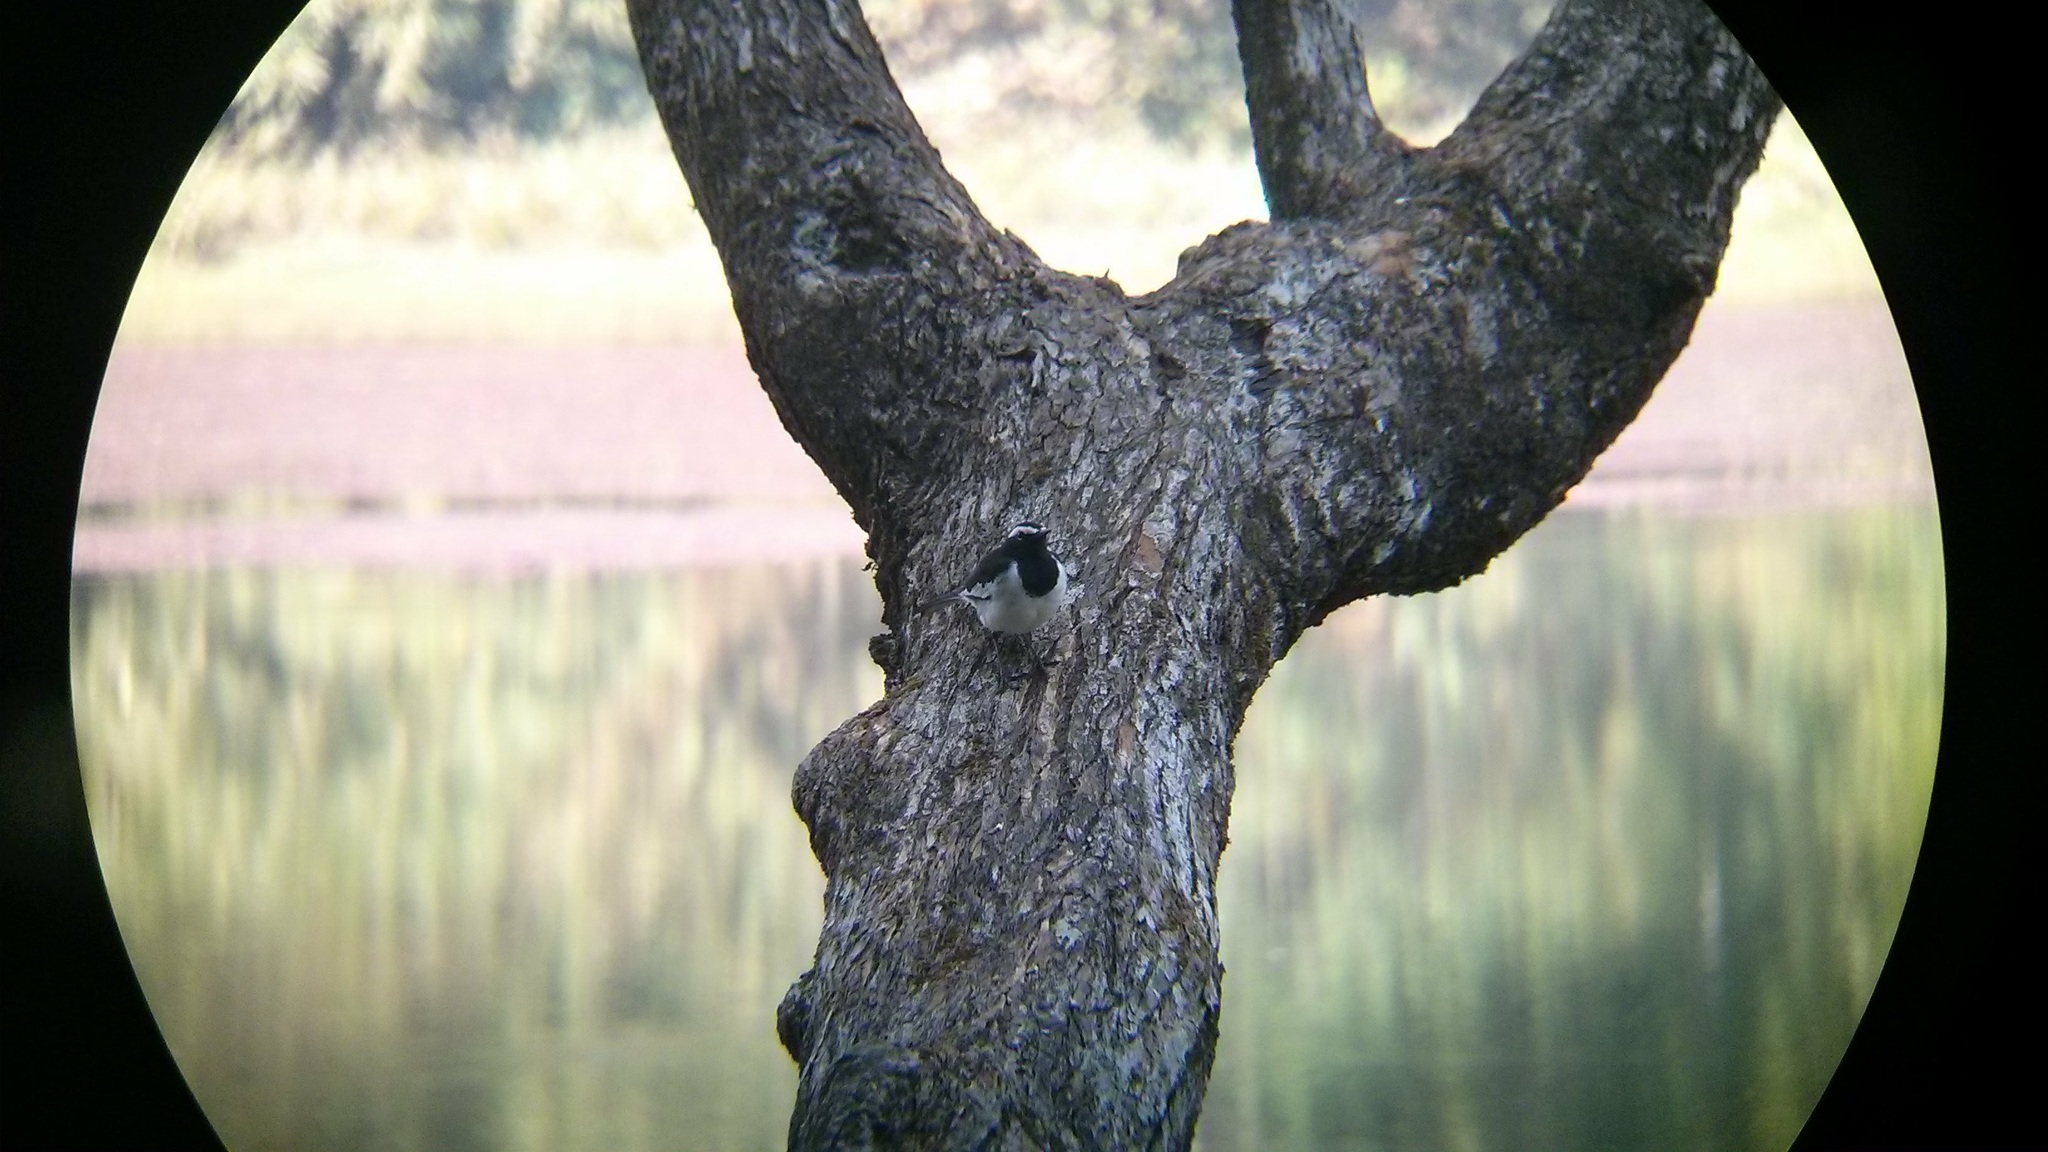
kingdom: Animalia
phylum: Chordata
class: Aves
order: Passeriformes
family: Motacillidae
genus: Motacilla
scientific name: Motacilla maderaspatensis
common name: White-browed wagtail
